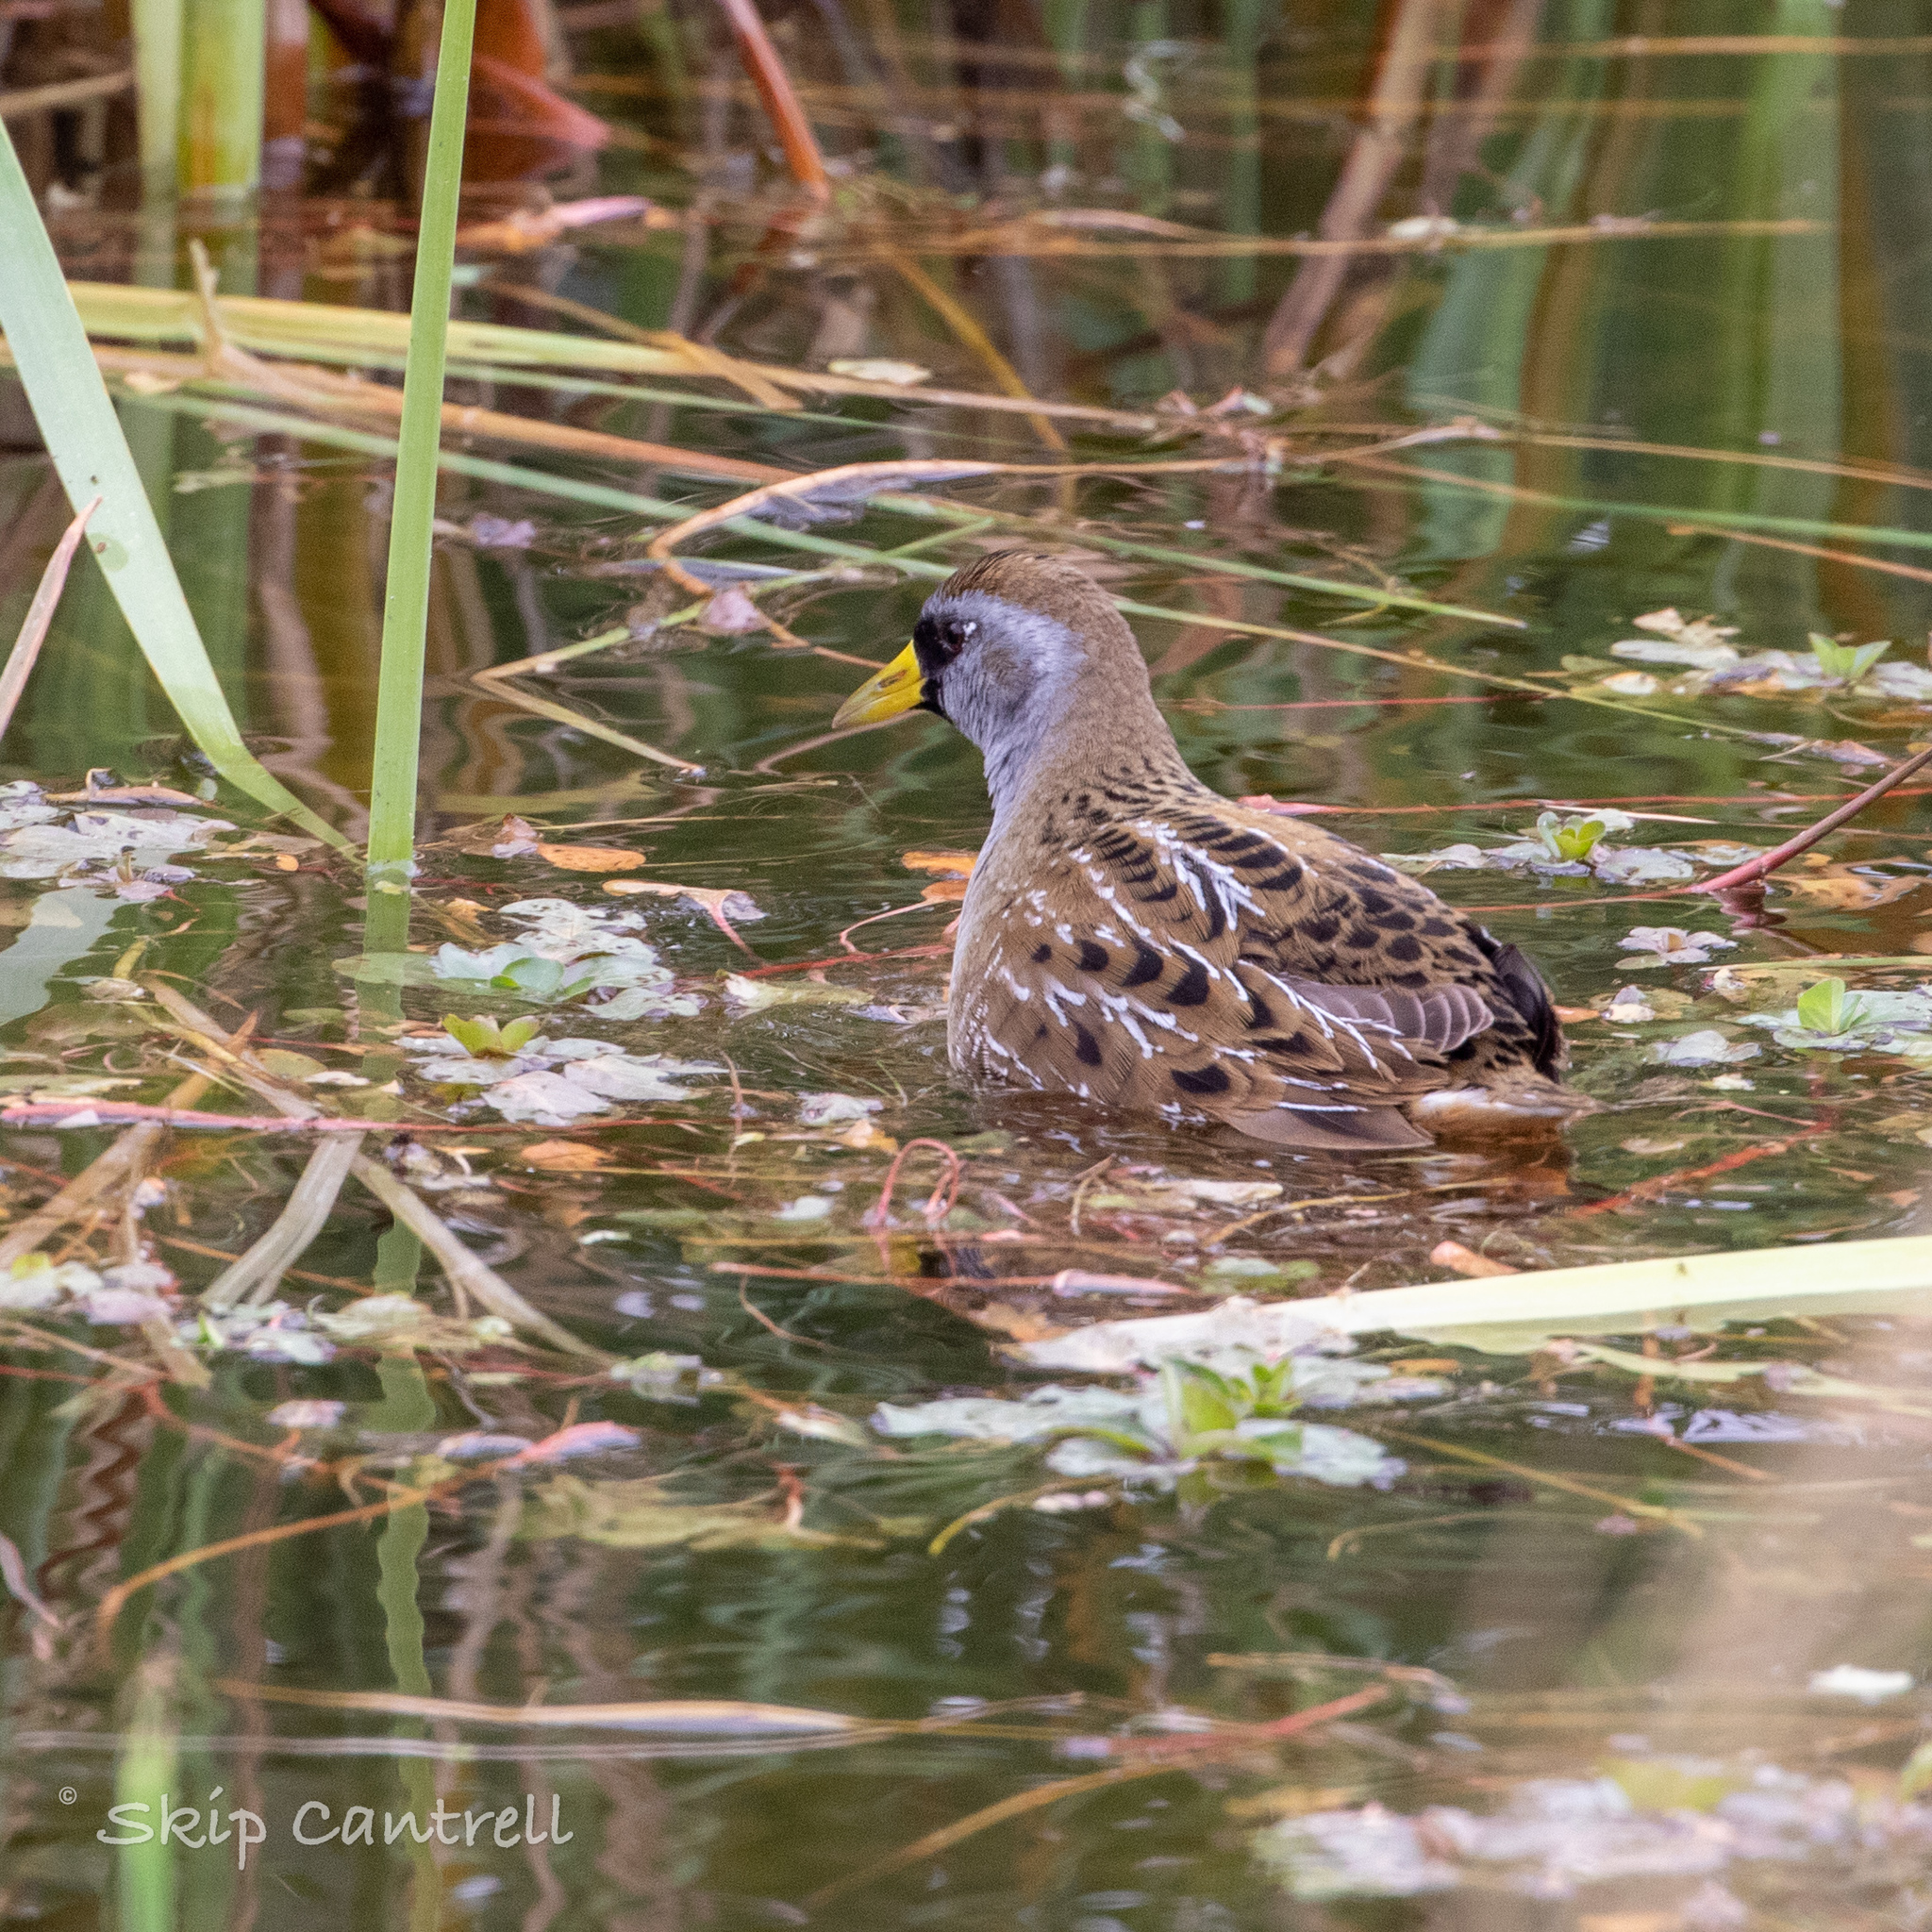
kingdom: Animalia
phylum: Chordata
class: Aves
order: Gruiformes
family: Rallidae
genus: Porzana
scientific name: Porzana carolina
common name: Sora
